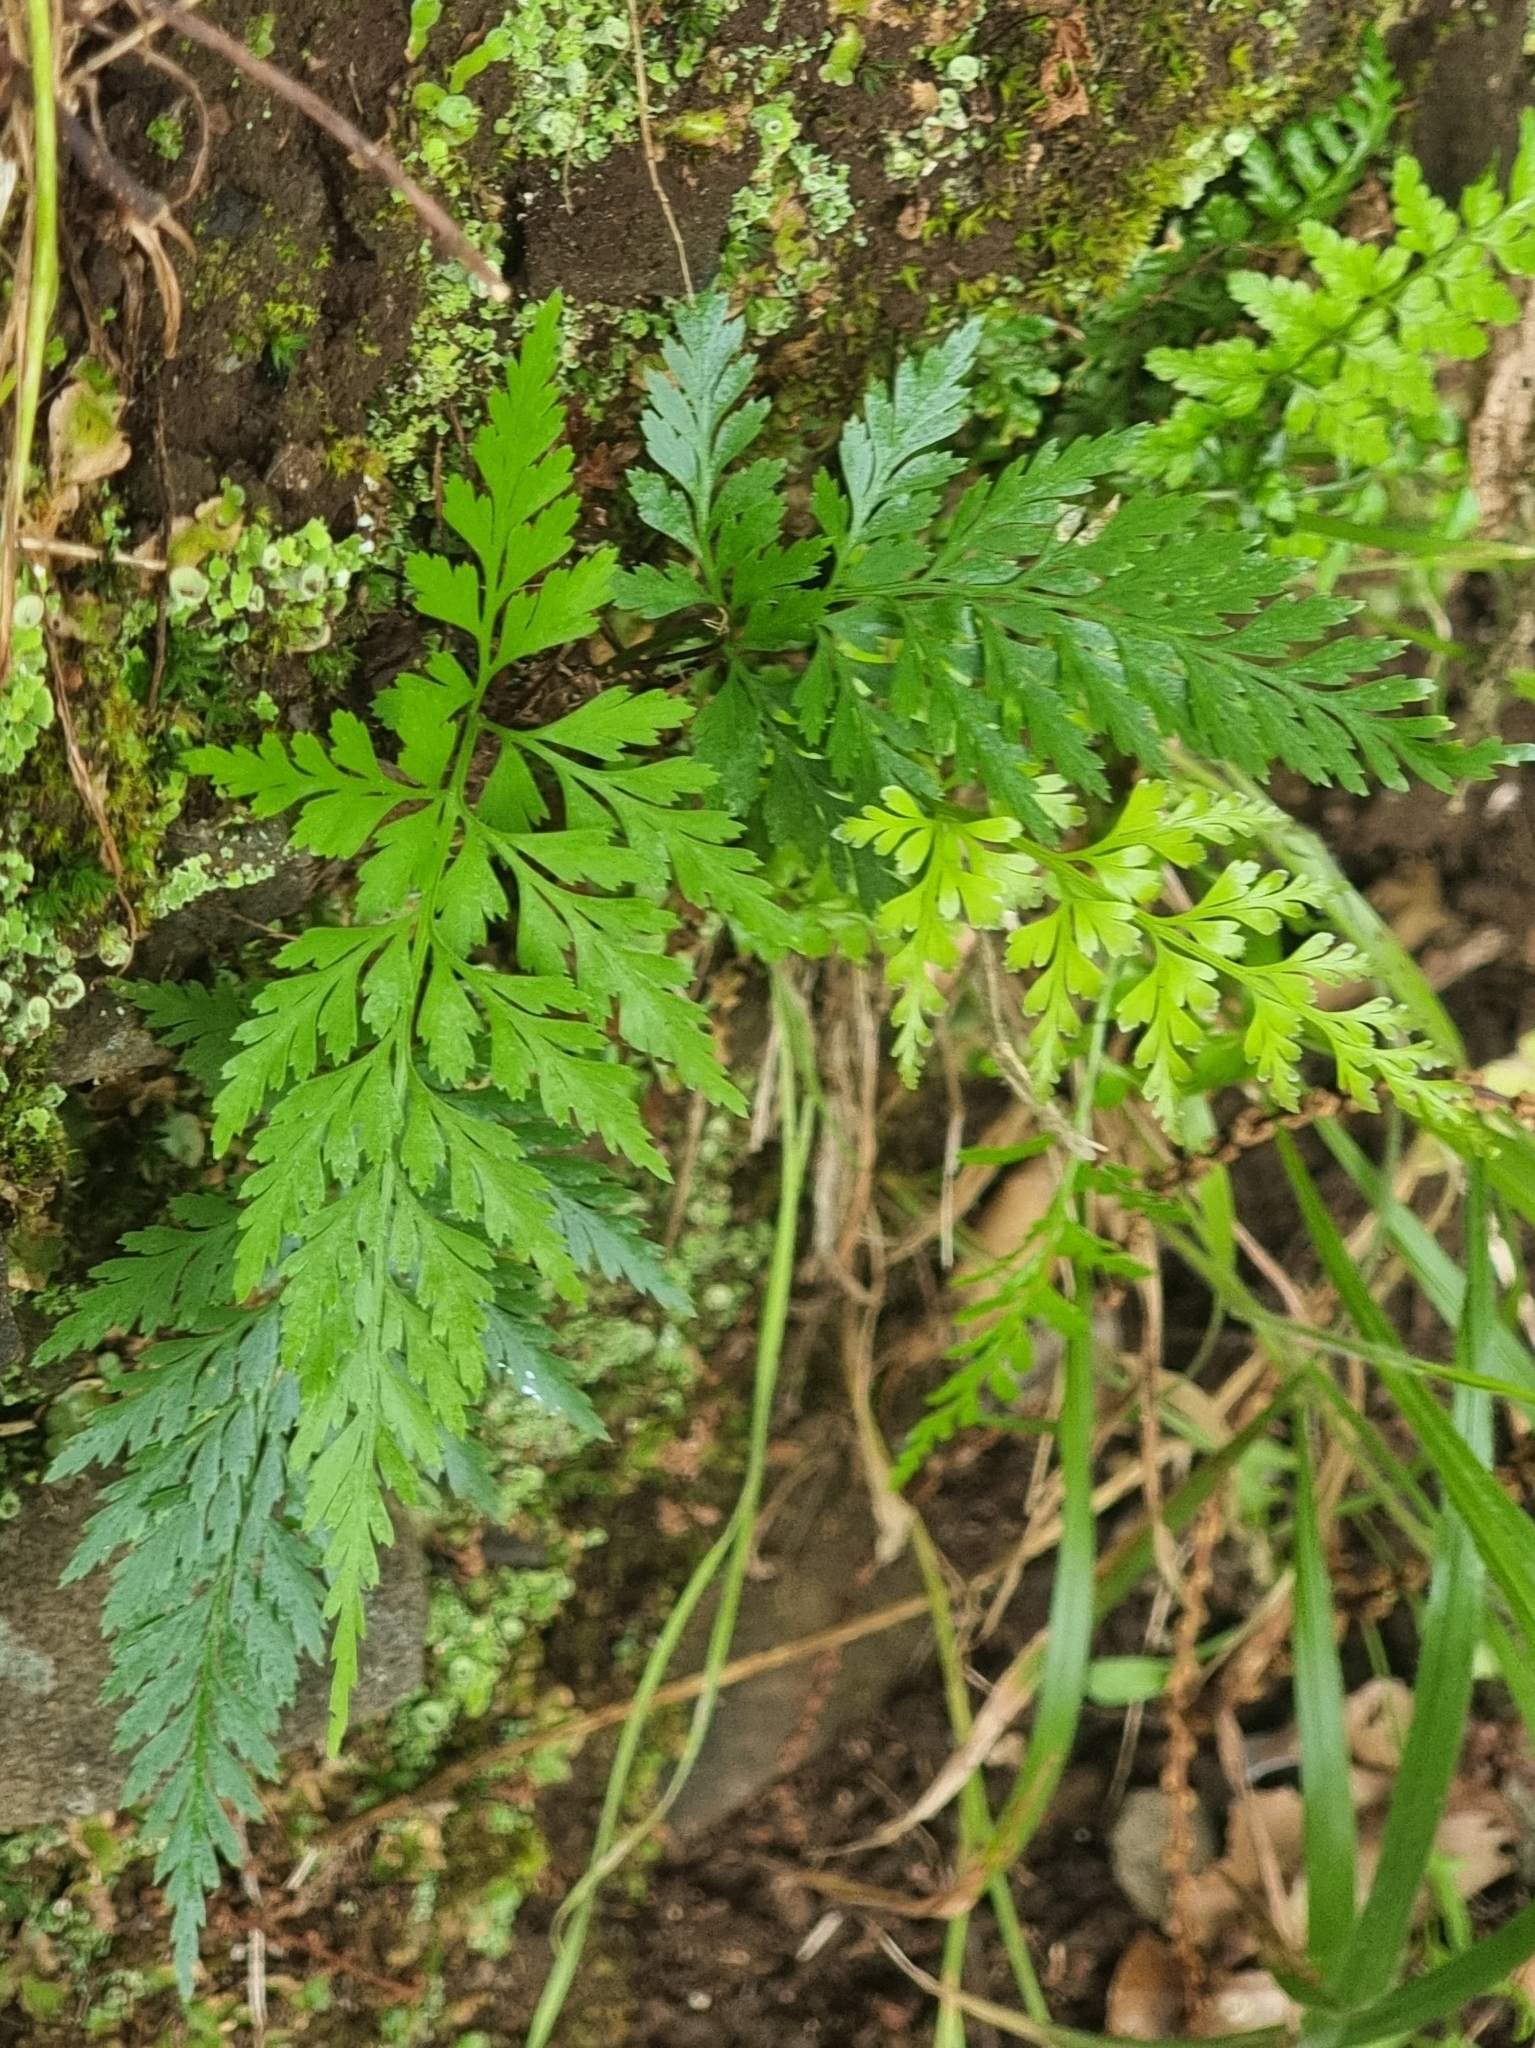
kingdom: Plantae
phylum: Tracheophyta
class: Polypodiopsida
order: Polypodiales
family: Aspleniaceae
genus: Asplenium
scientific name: Asplenium onopteris
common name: Irish spleenwort
